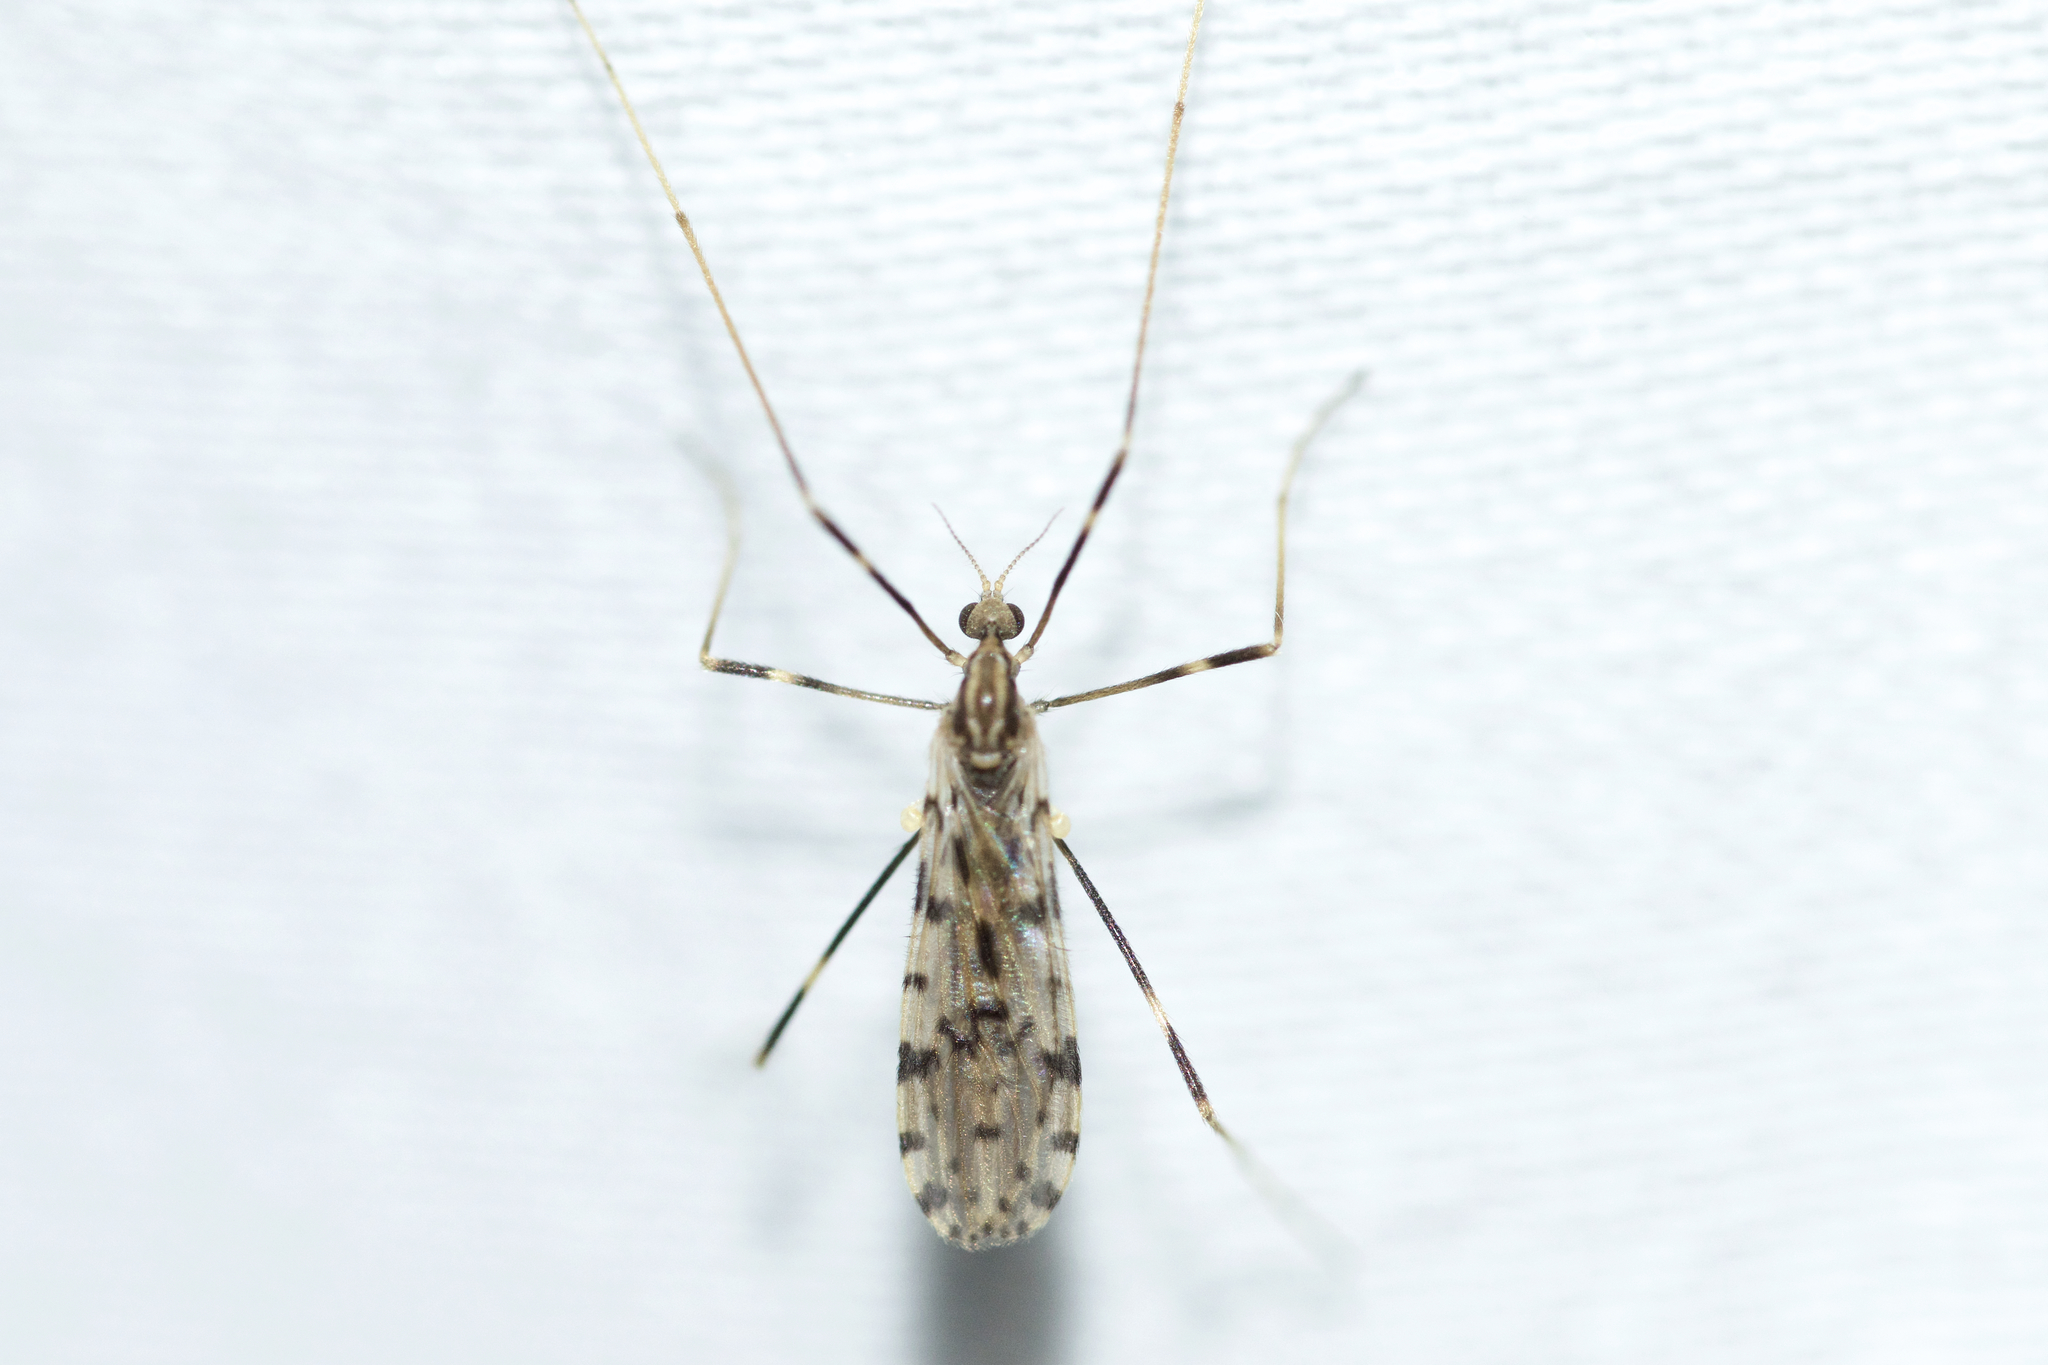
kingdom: Animalia
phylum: Arthropoda
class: Insecta
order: Diptera
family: Limoniidae
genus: Ilisia
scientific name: Ilisia graphica
